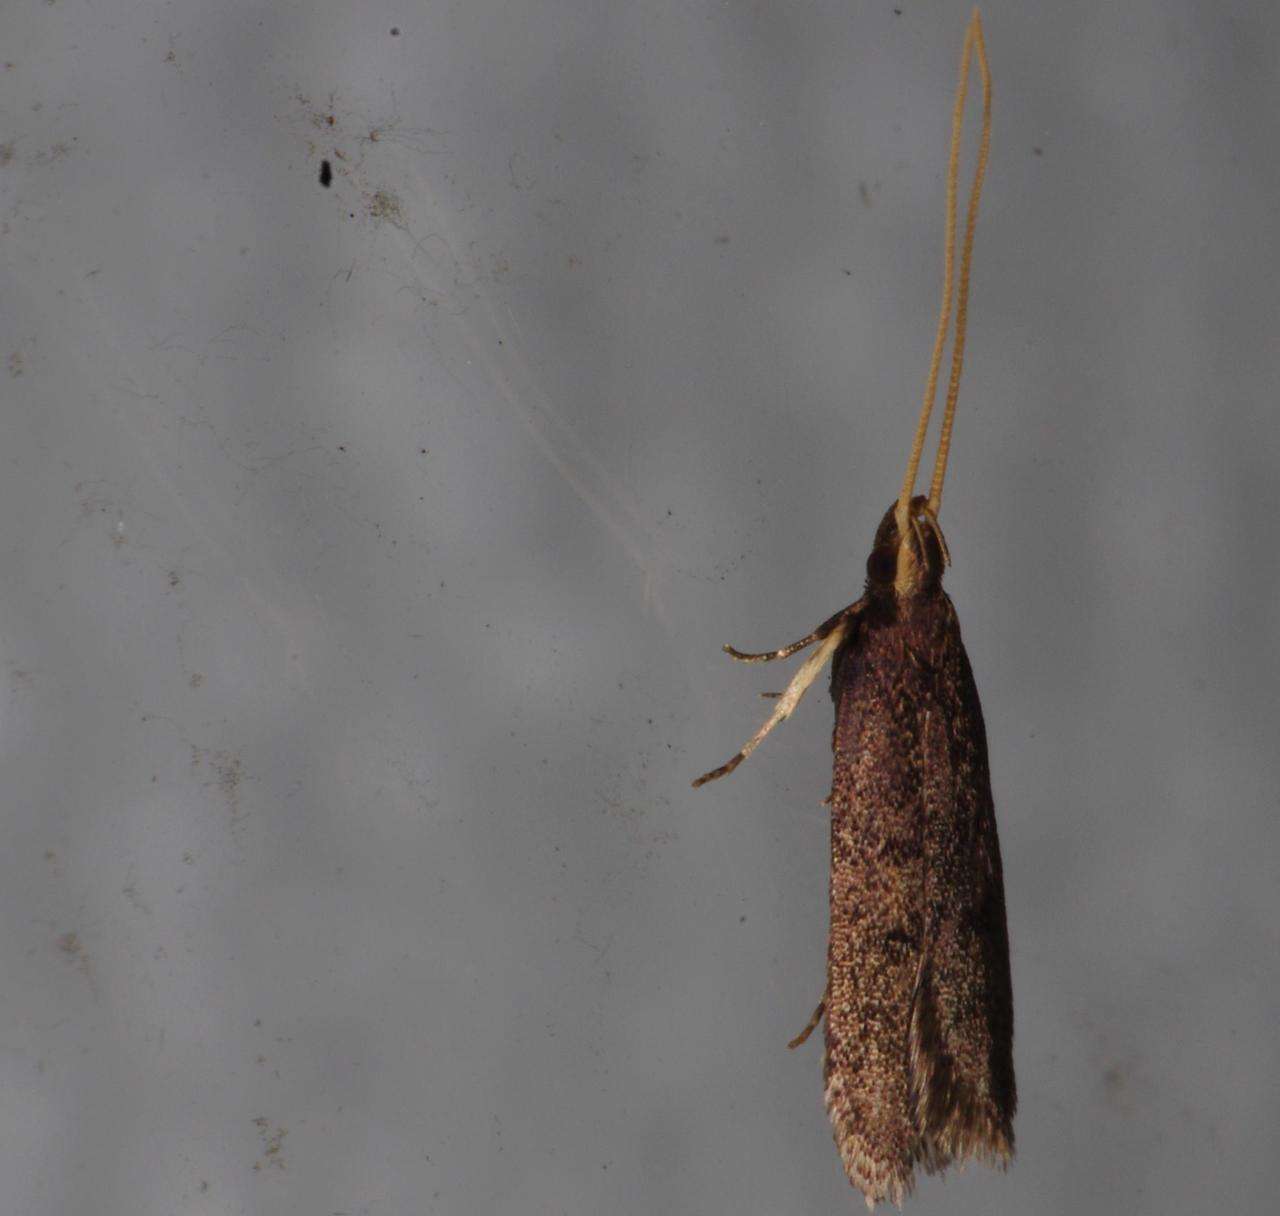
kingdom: Animalia
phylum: Arthropoda
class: Insecta
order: Lepidoptera
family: Lecithoceridae
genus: Lecithocera
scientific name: Lecithocera micromela
